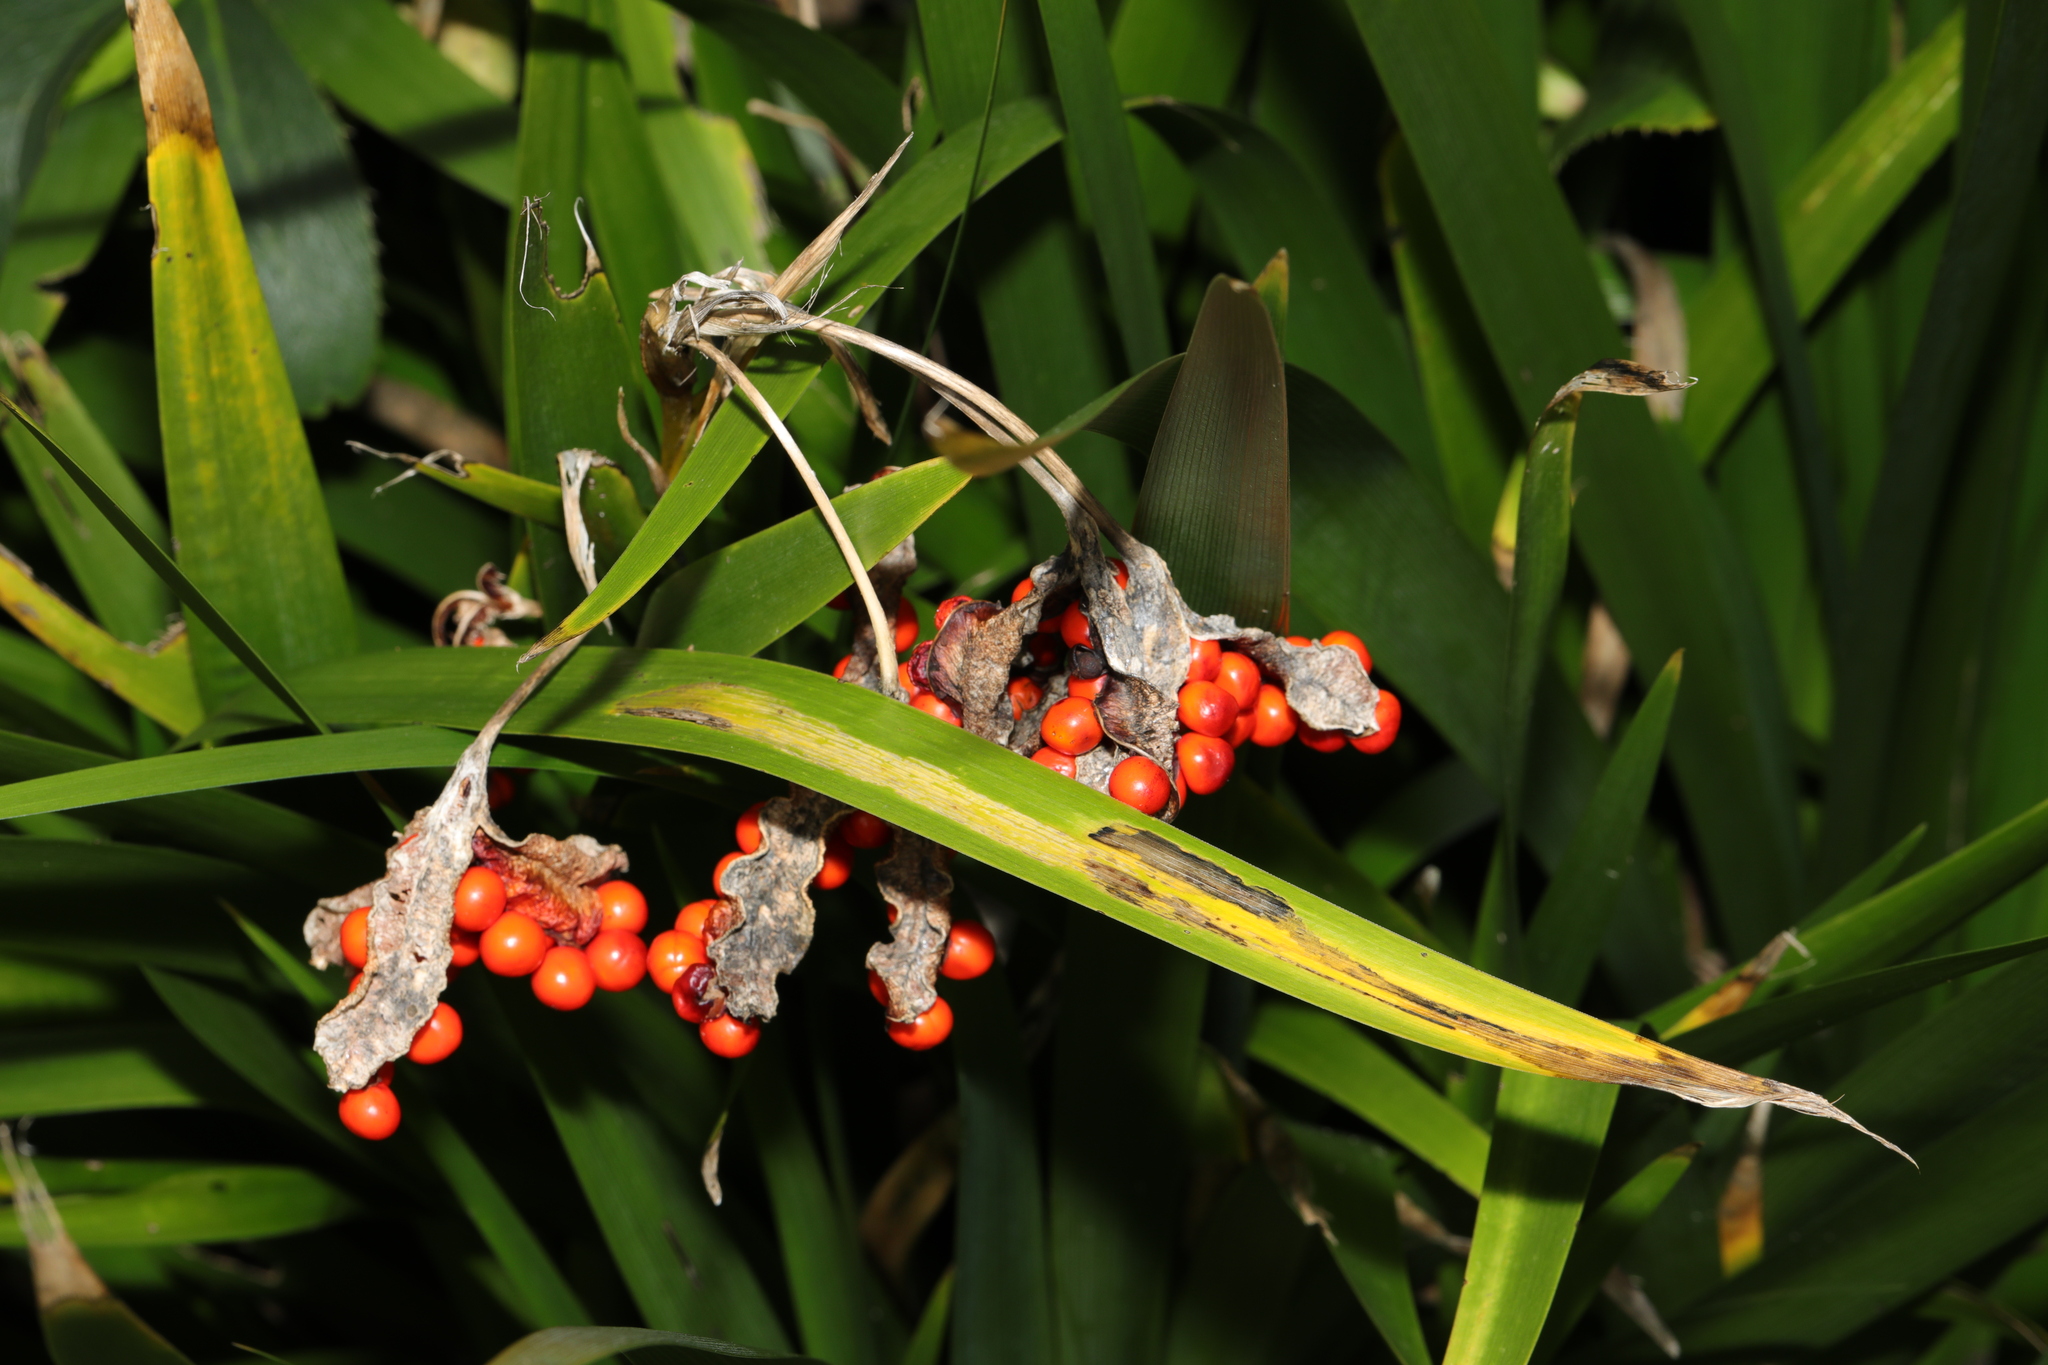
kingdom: Plantae
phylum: Tracheophyta
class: Liliopsida
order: Asparagales
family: Iridaceae
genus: Iris
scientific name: Iris foetidissima
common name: Stinking iris
